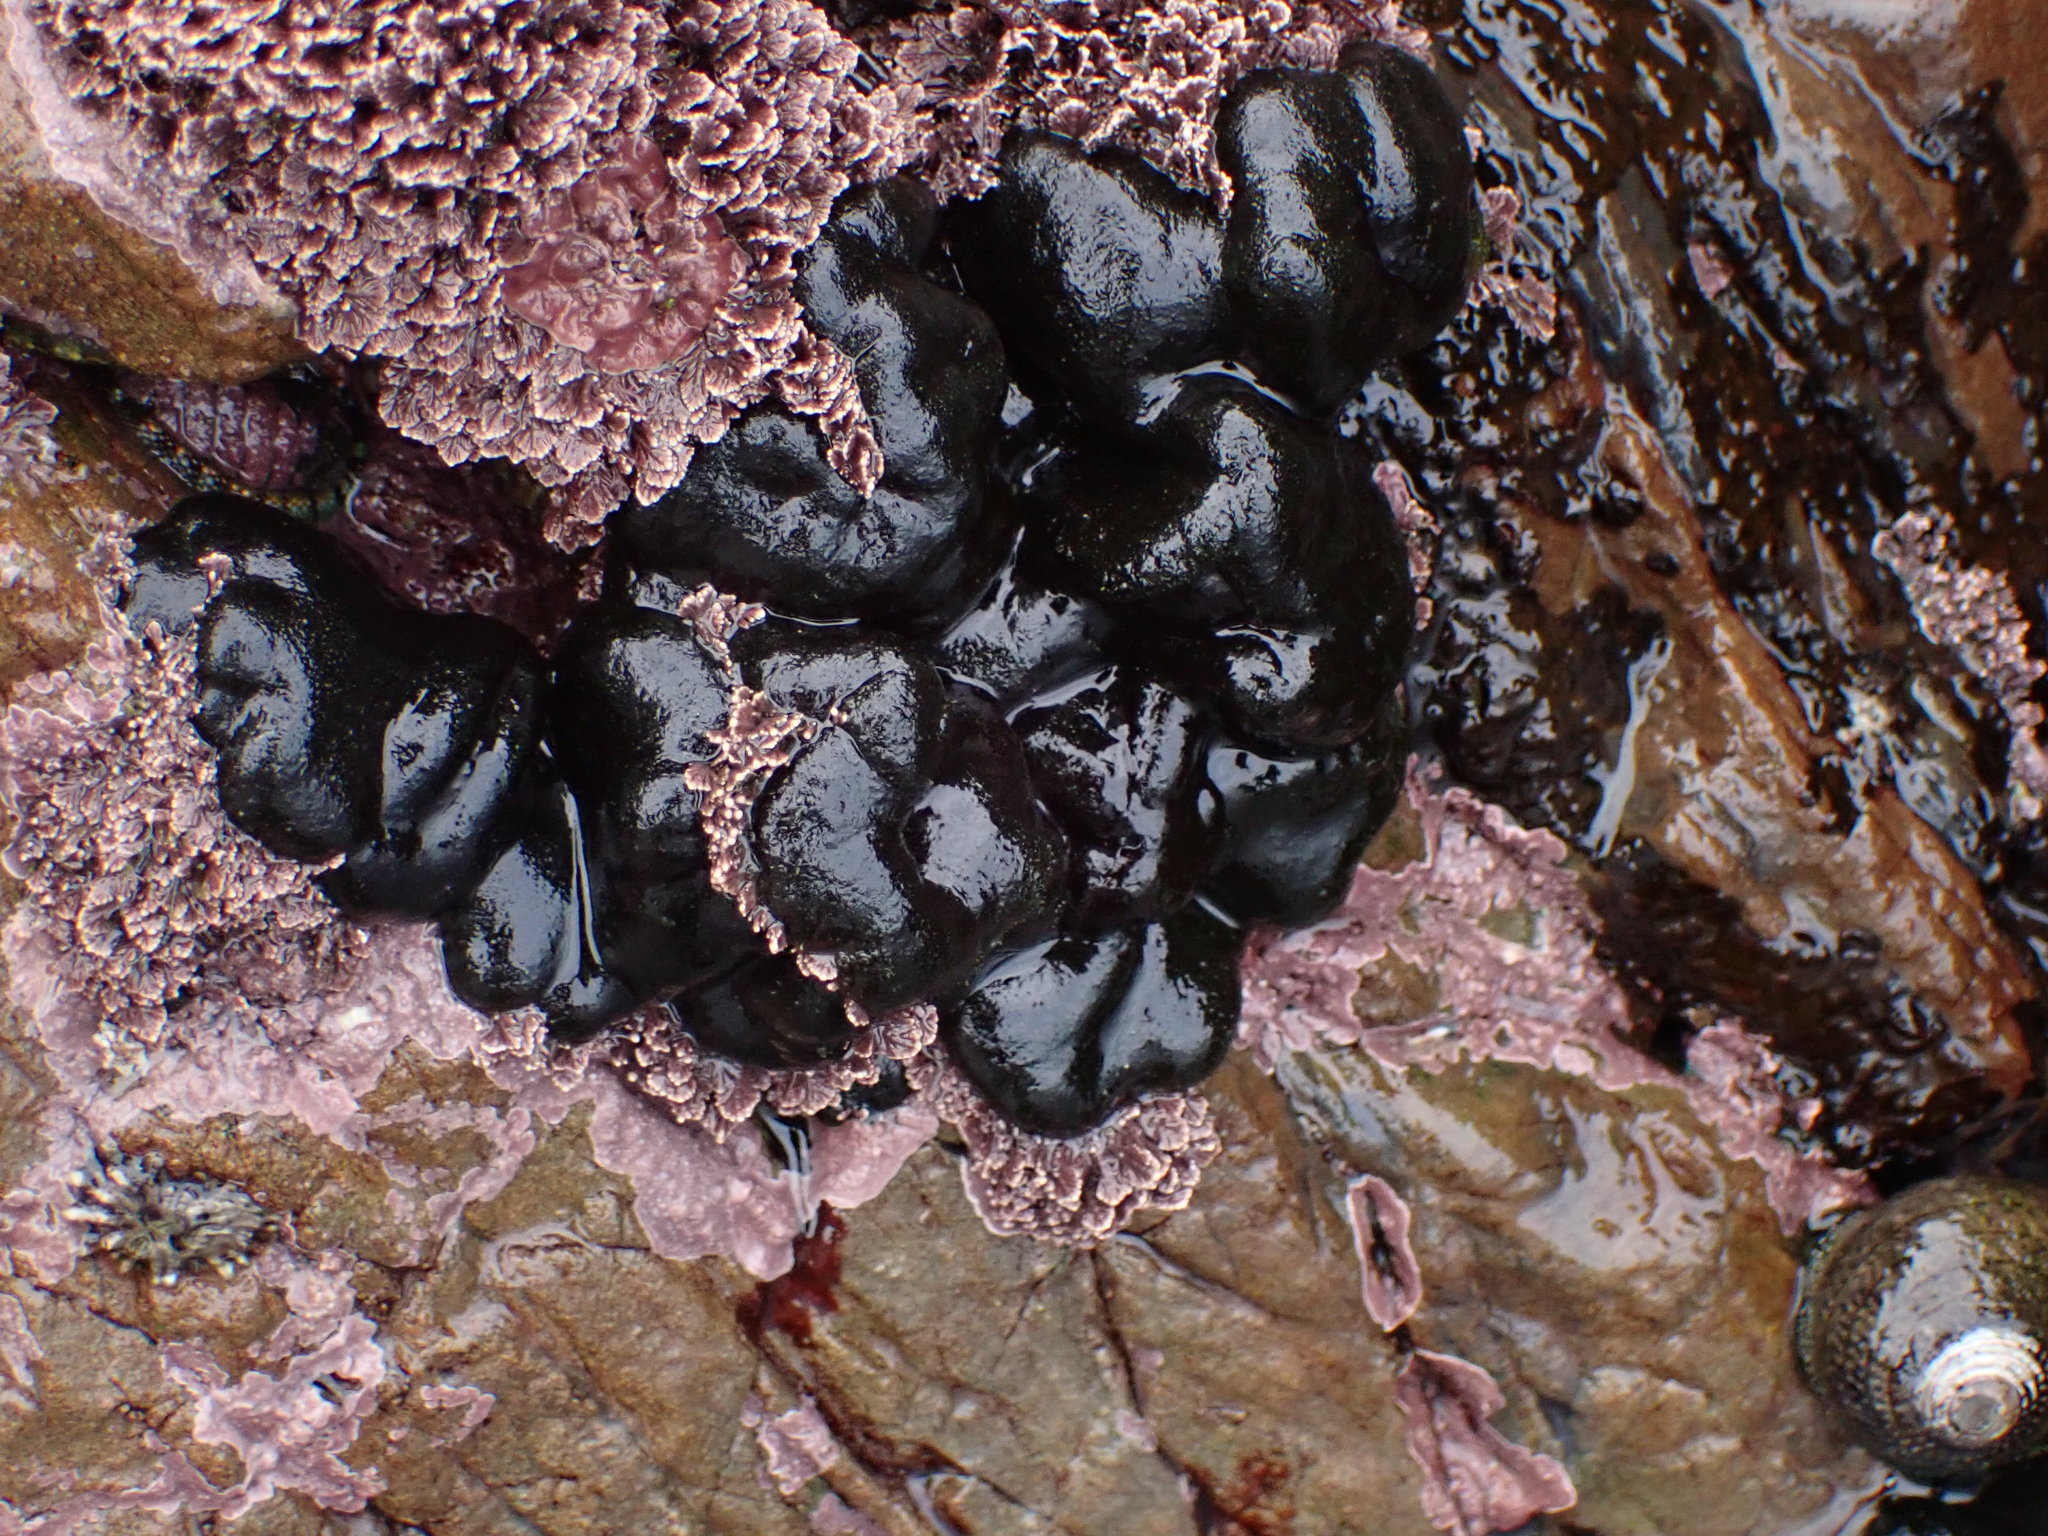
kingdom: Plantae
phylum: Chlorophyta
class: Ulvophyceae
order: Bryopsidales
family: Codiaceae
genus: Codium
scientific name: Codium convolutum
